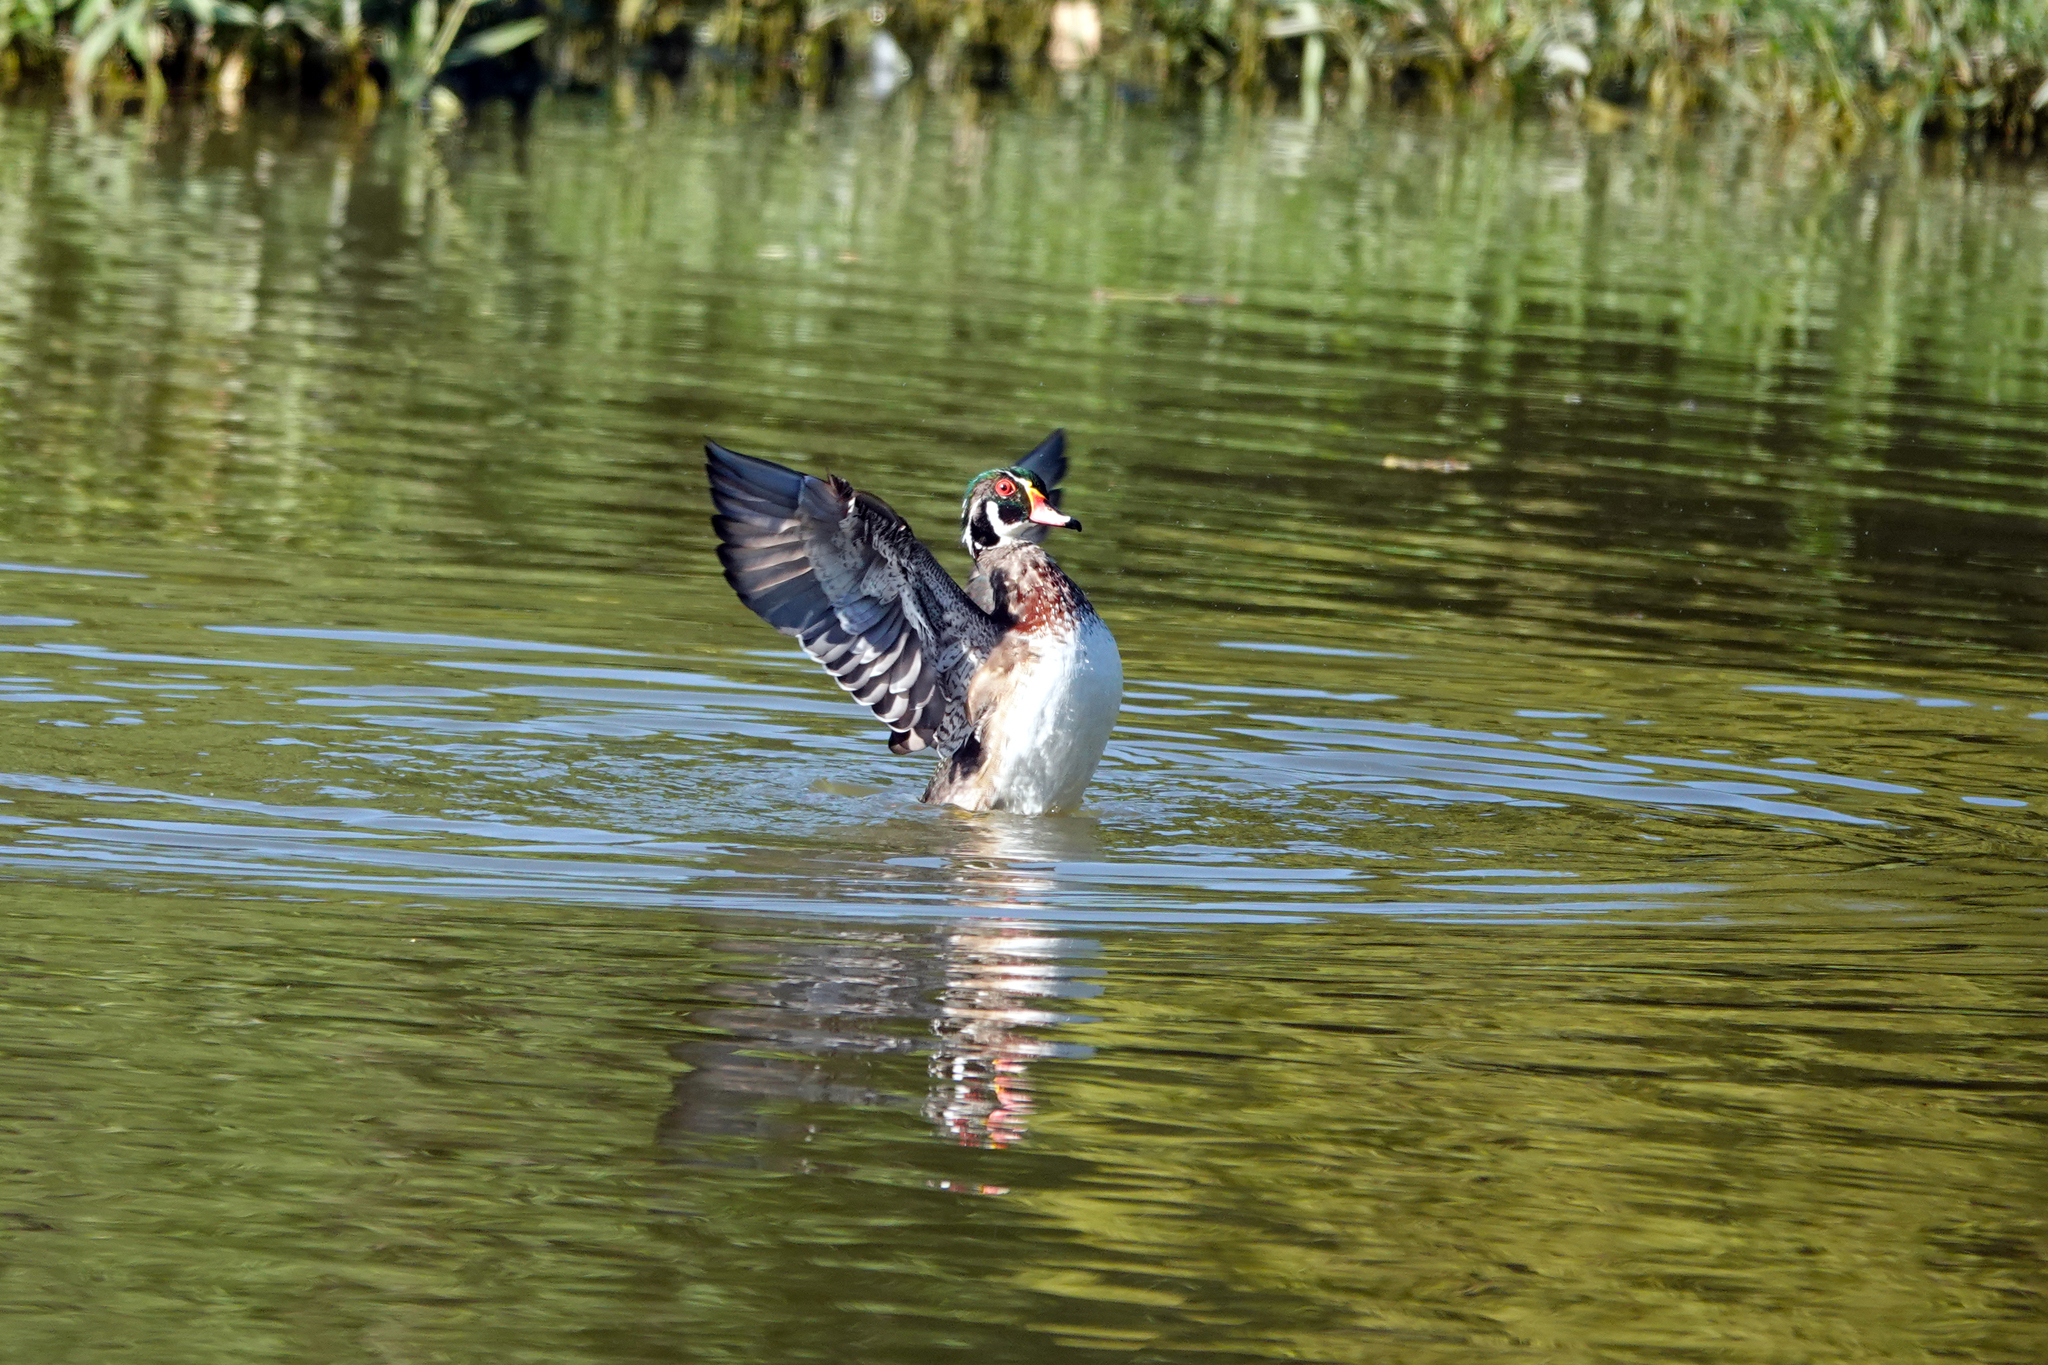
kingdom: Animalia
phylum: Chordata
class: Aves
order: Anseriformes
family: Anatidae
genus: Aix
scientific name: Aix sponsa
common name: Wood duck
